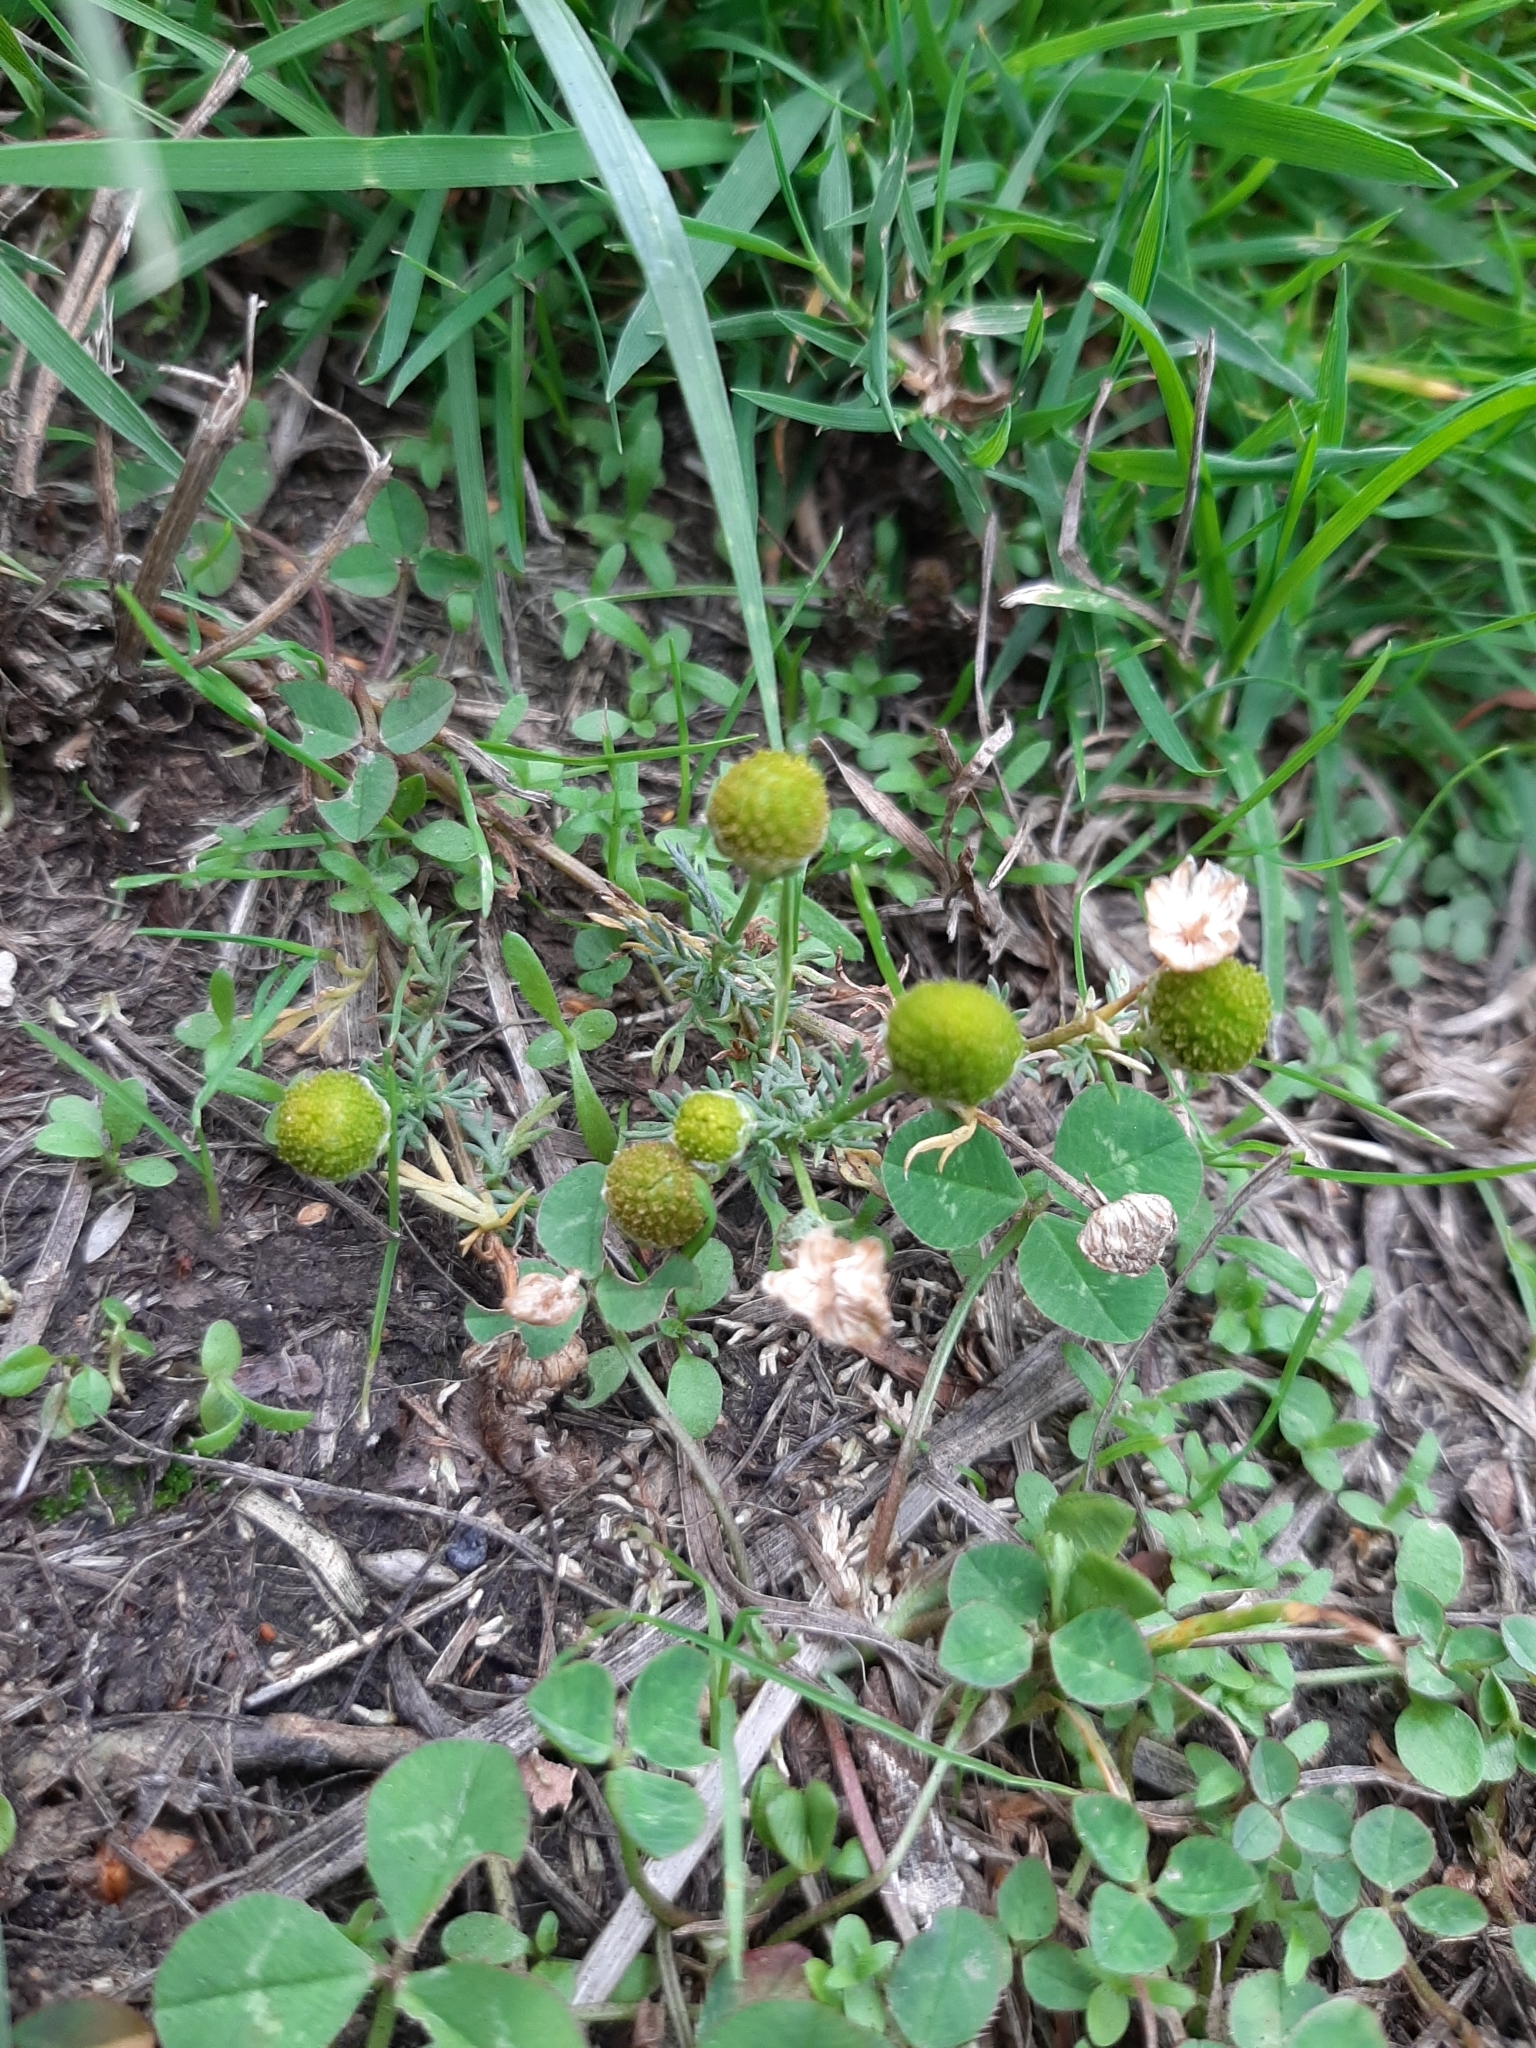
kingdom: Plantae
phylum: Tracheophyta
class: Magnoliopsida
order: Asterales
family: Asteraceae
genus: Matricaria
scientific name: Matricaria discoidea
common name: Disc mayweed
